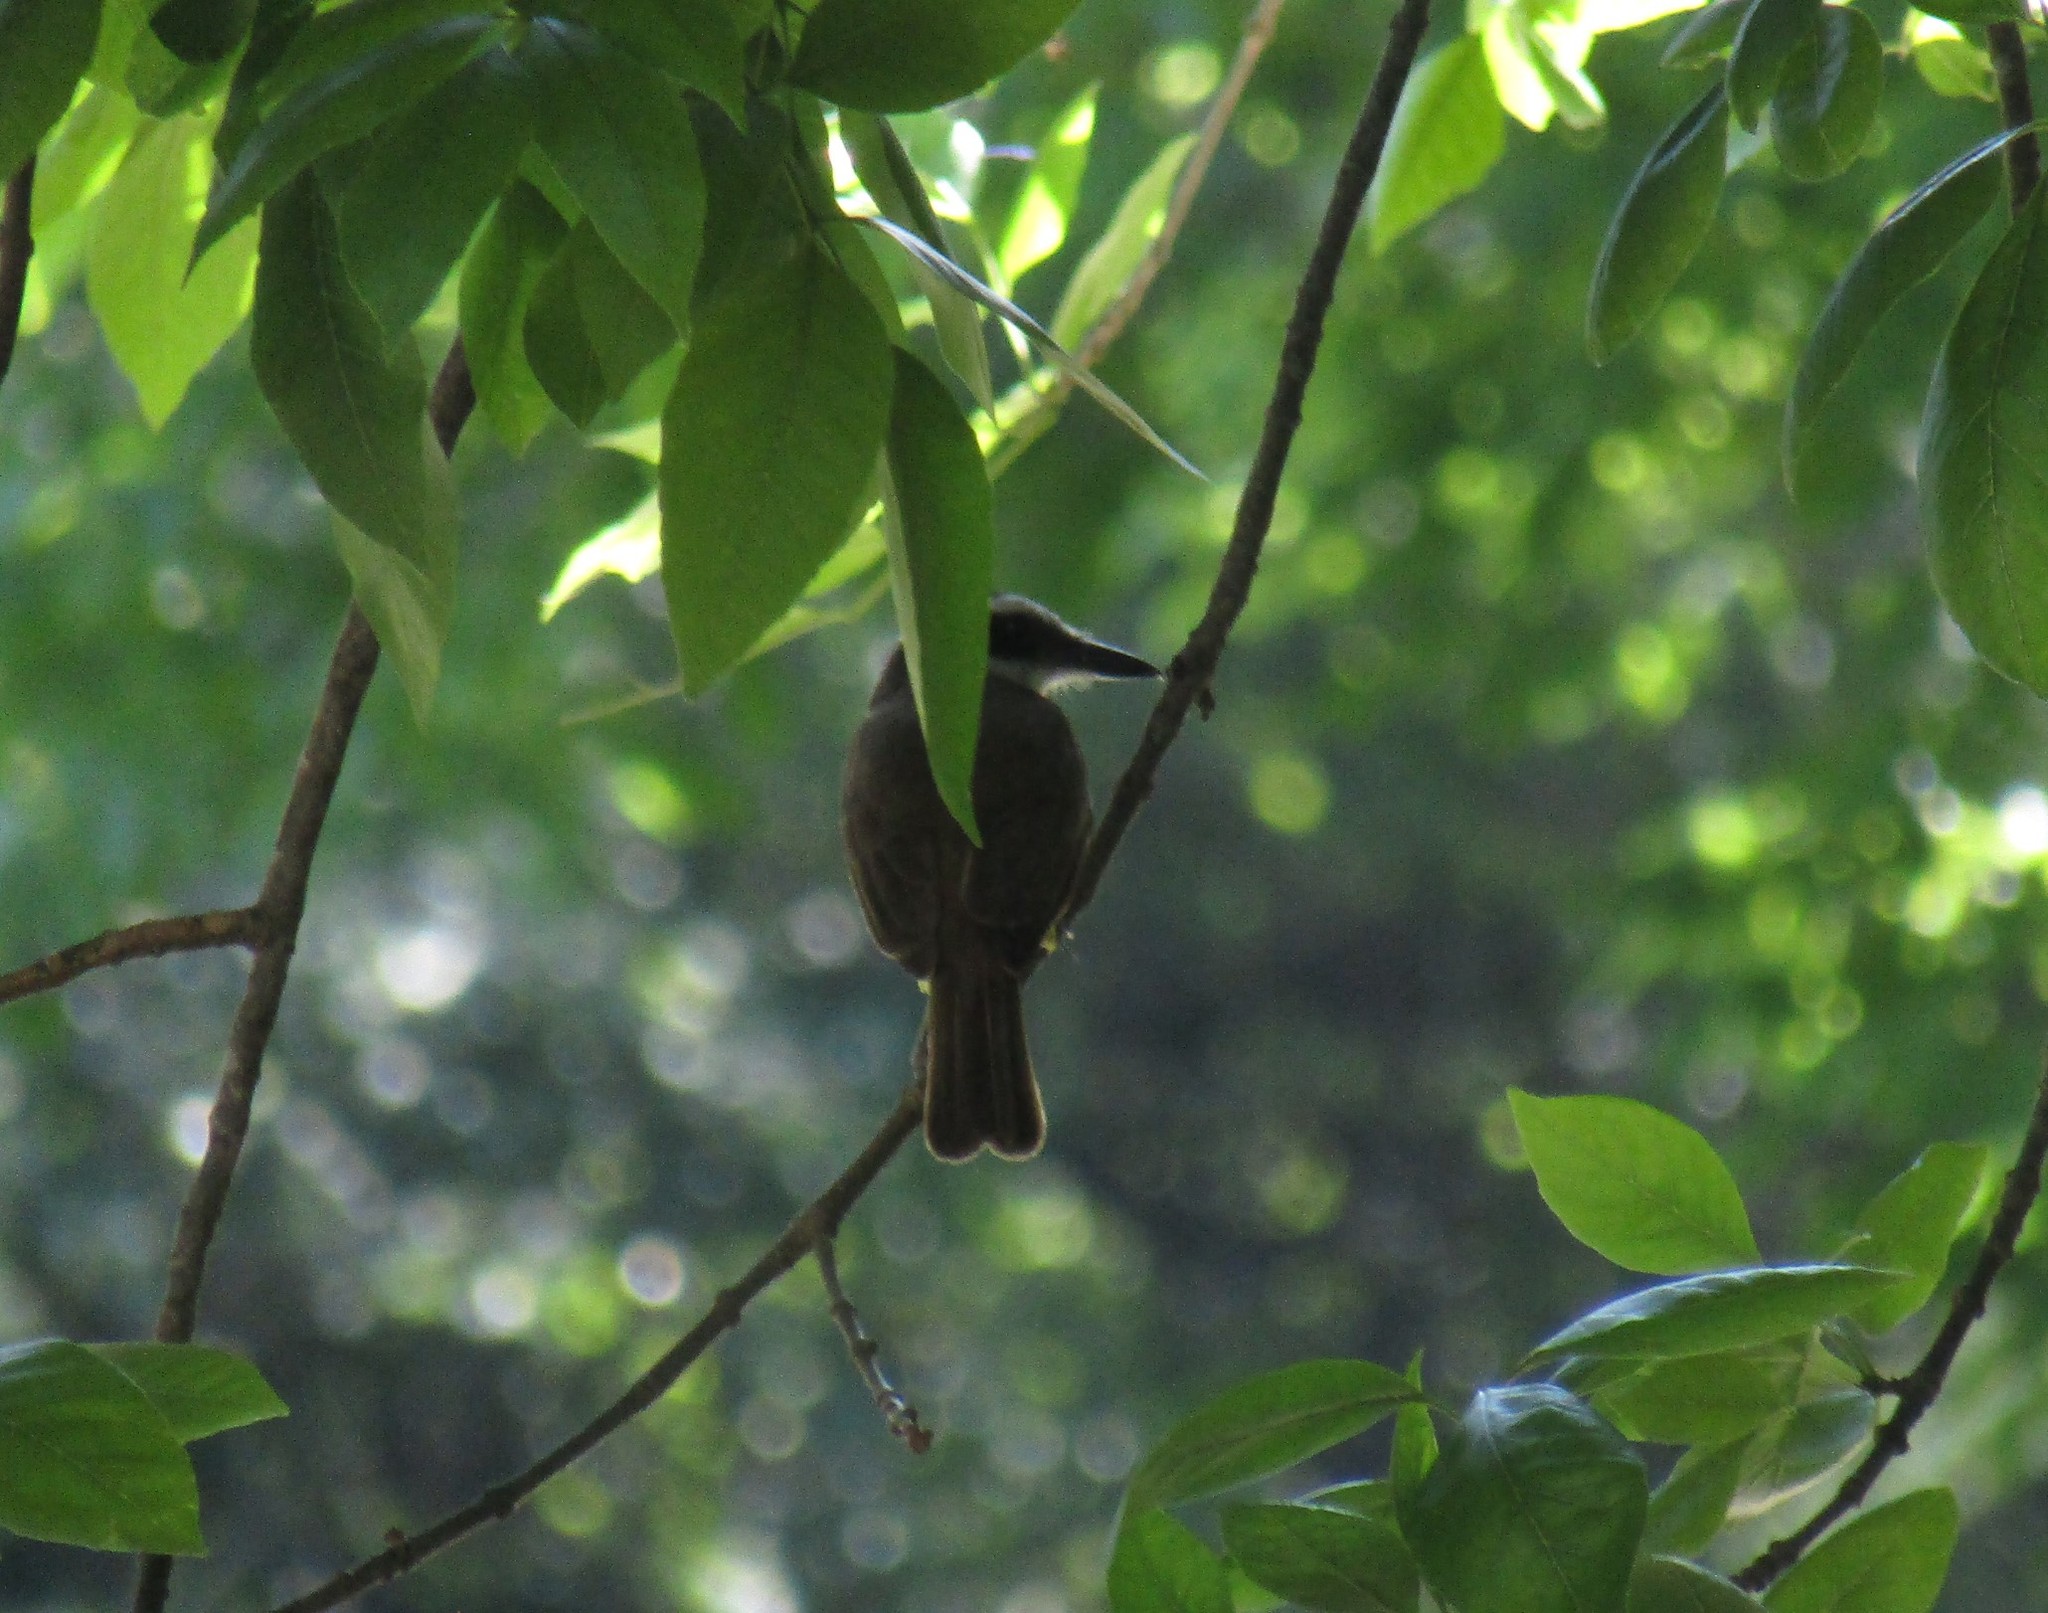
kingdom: Animalia
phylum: Chordata
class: Aves
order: Passeriformes
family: Tyrannidae
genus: Pitangus
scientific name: Pitangus sulphuratus
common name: Great kiskadee
